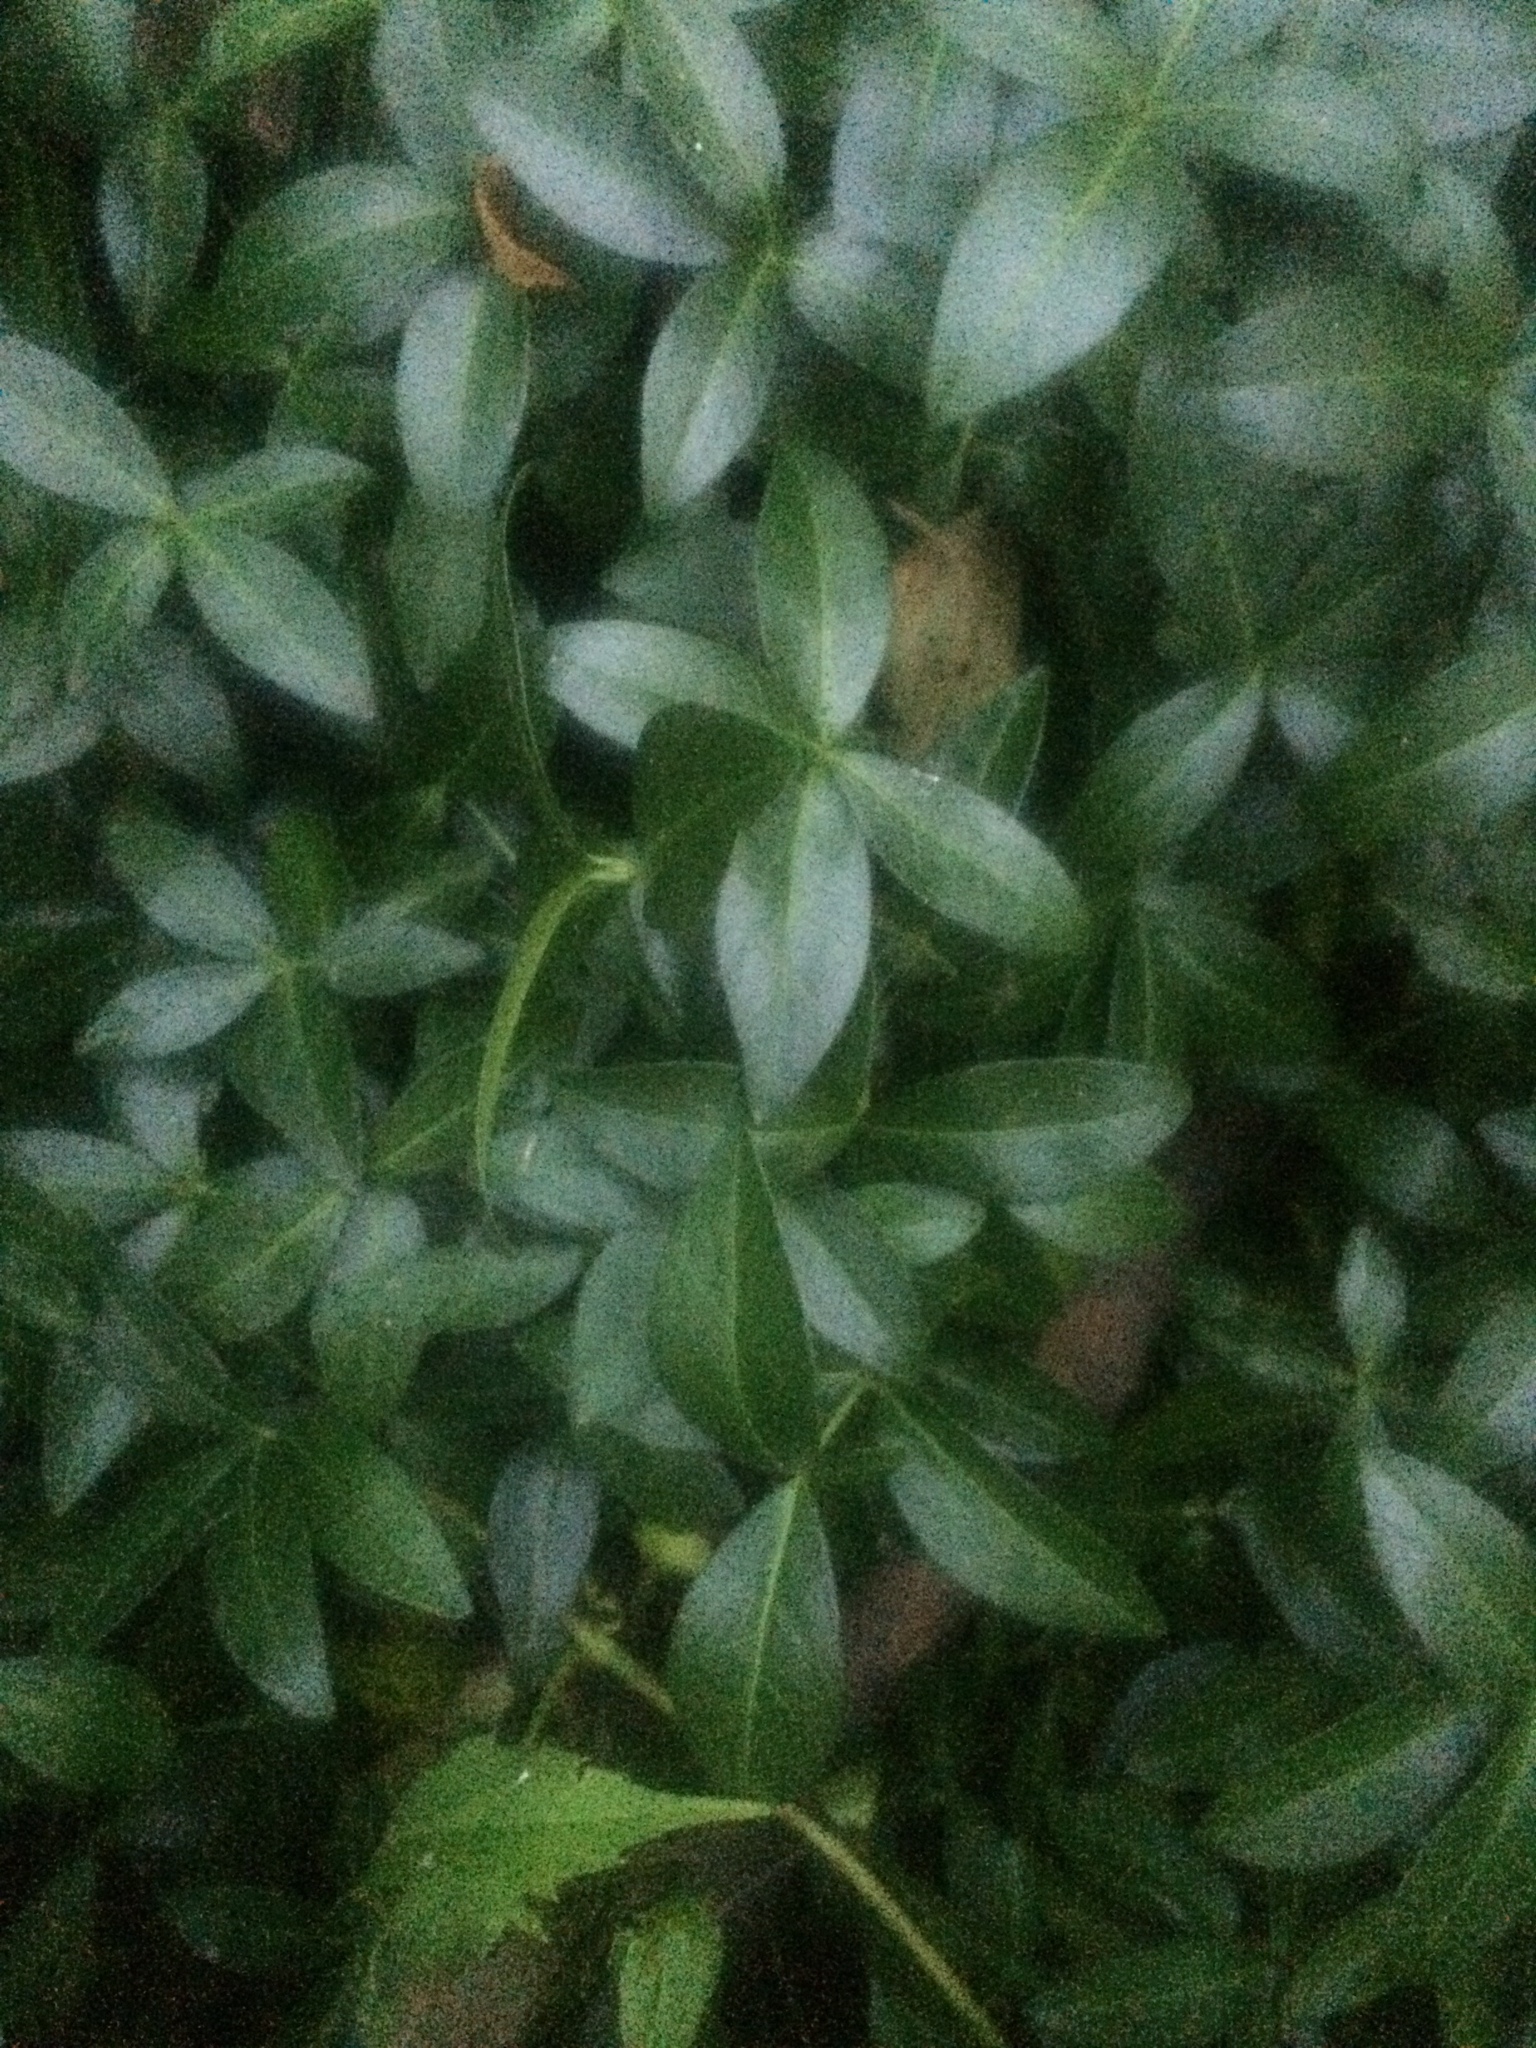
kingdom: Plantae
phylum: Tracheophyta
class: Magnoliopsida
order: Gentianales
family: Apocynaceae
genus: Vinca
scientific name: Vinca minor
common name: Lesser periwinkle
